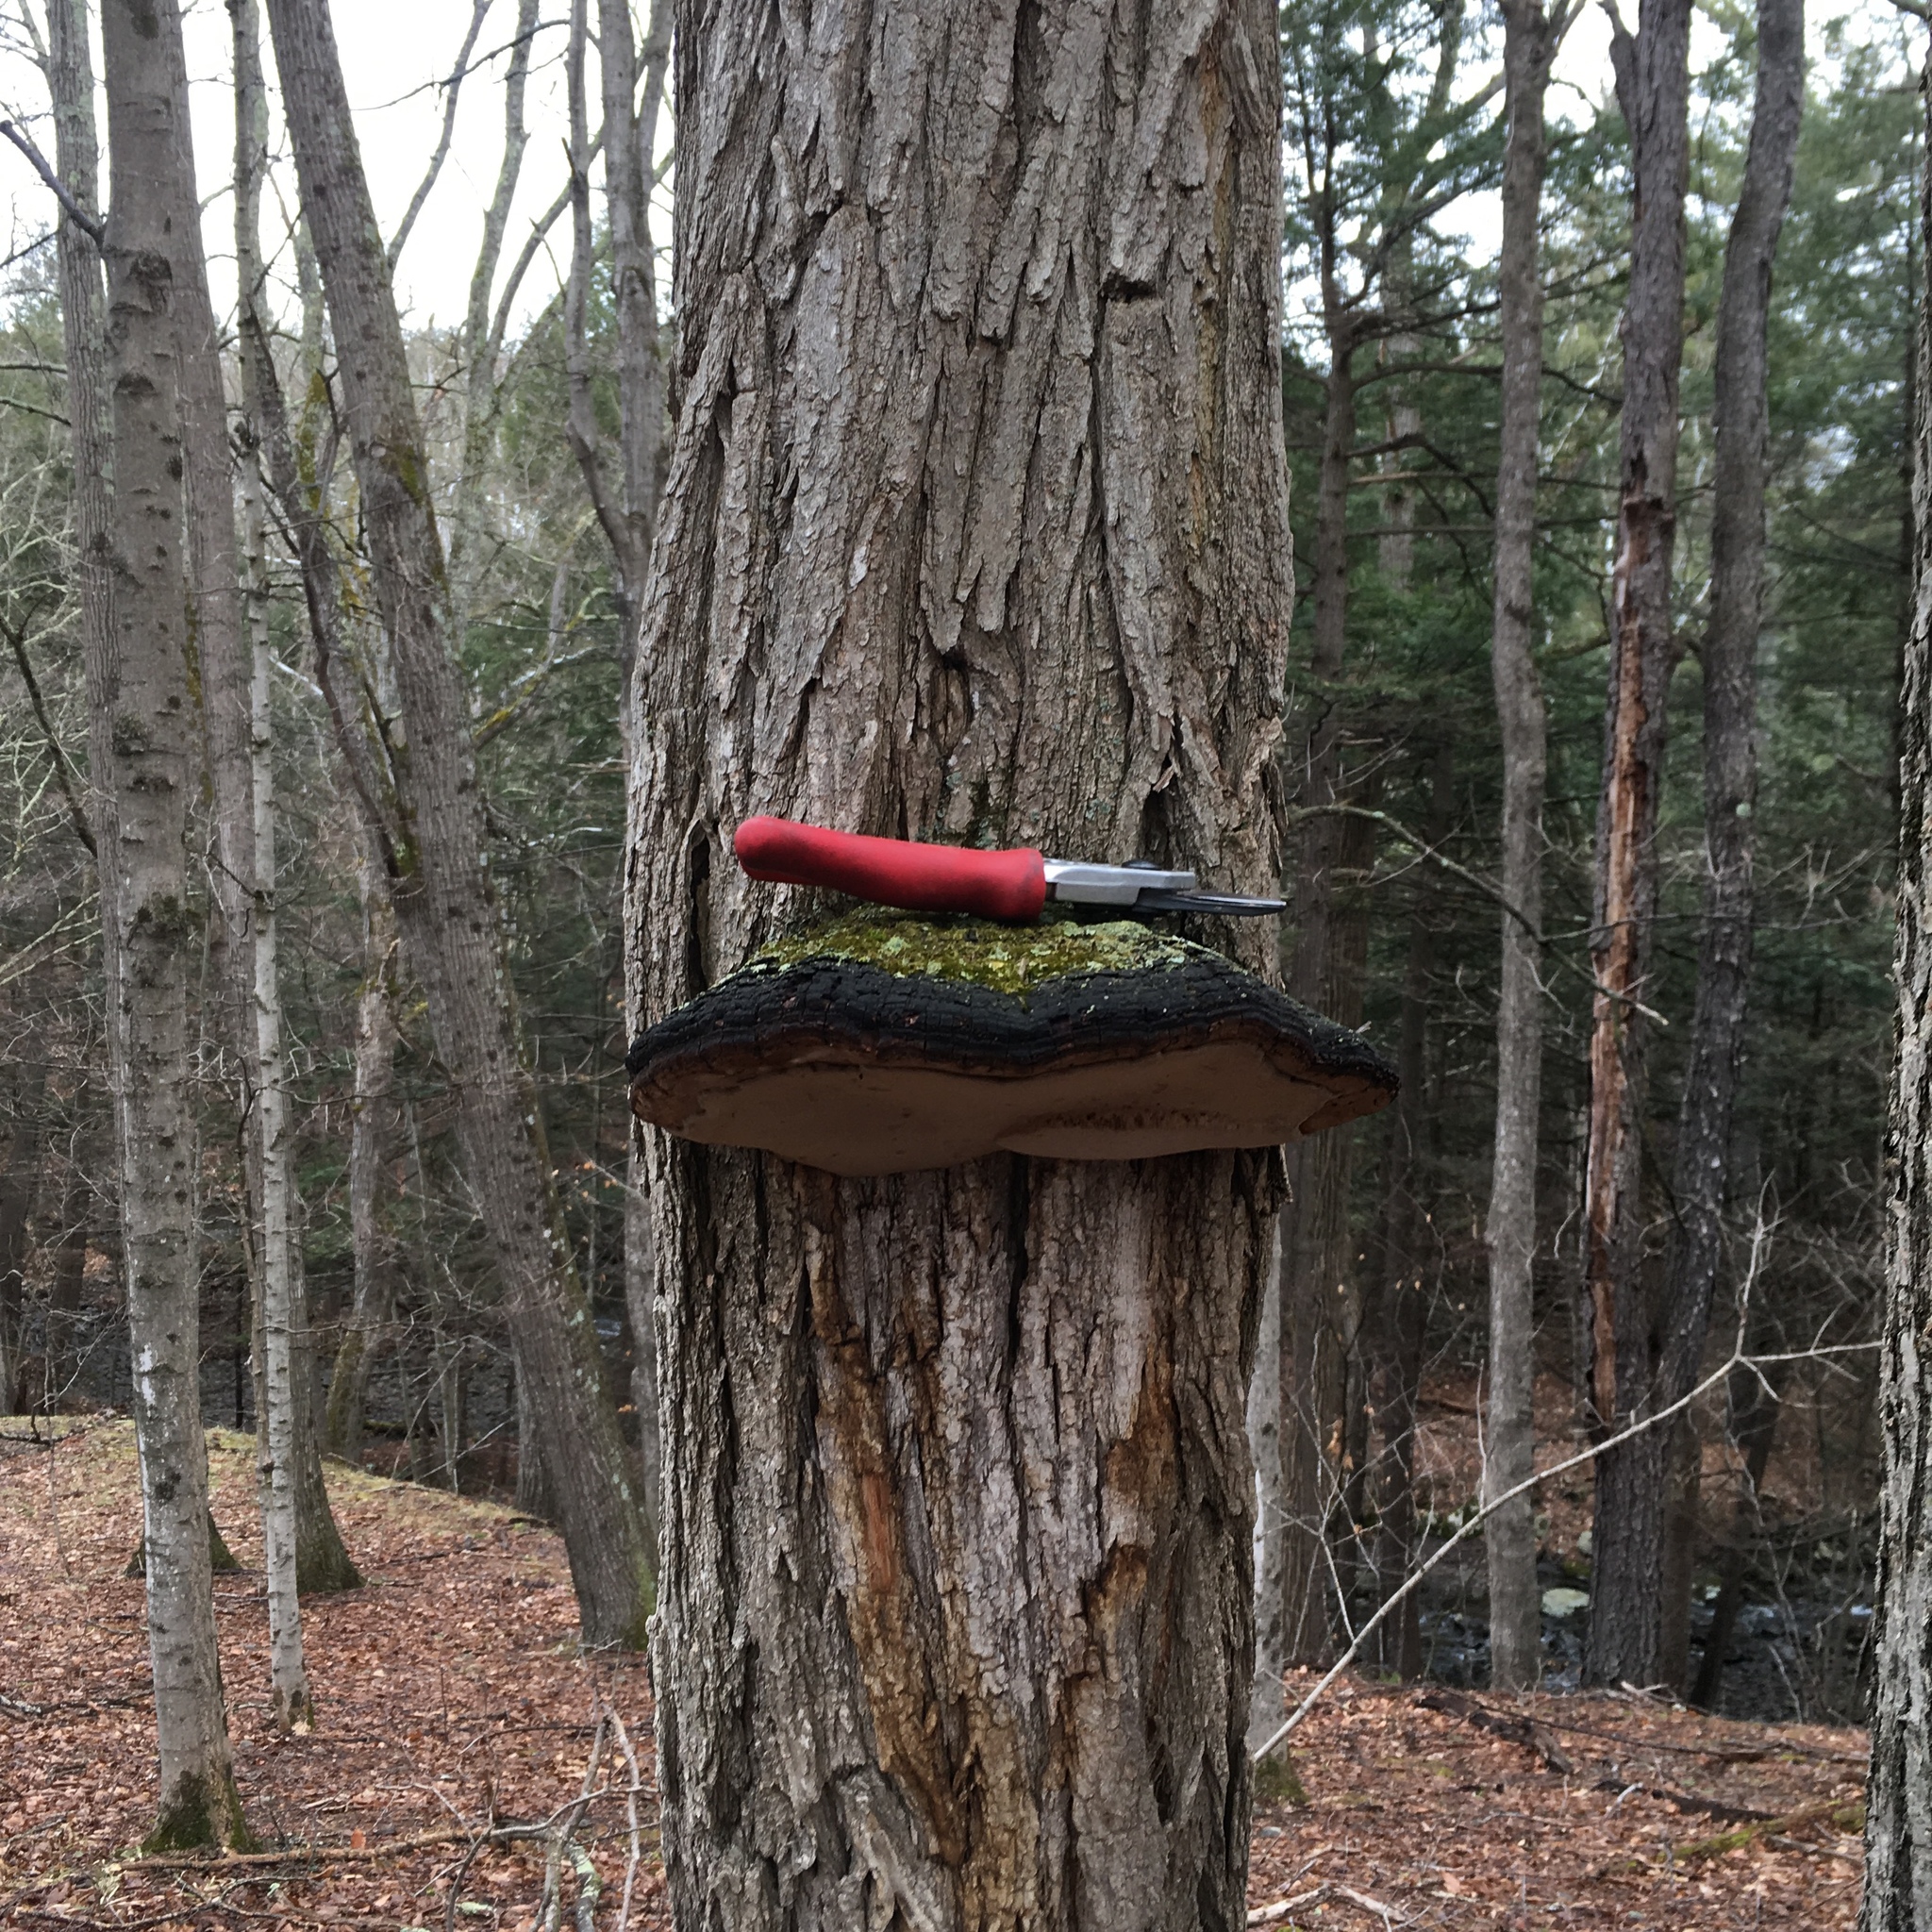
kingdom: Fungi
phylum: Basidiomycota
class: Agaricomycetes
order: Hymenochaetales
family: Hymenochaetaceae
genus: Phellinus
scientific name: Phellinus robiniae
